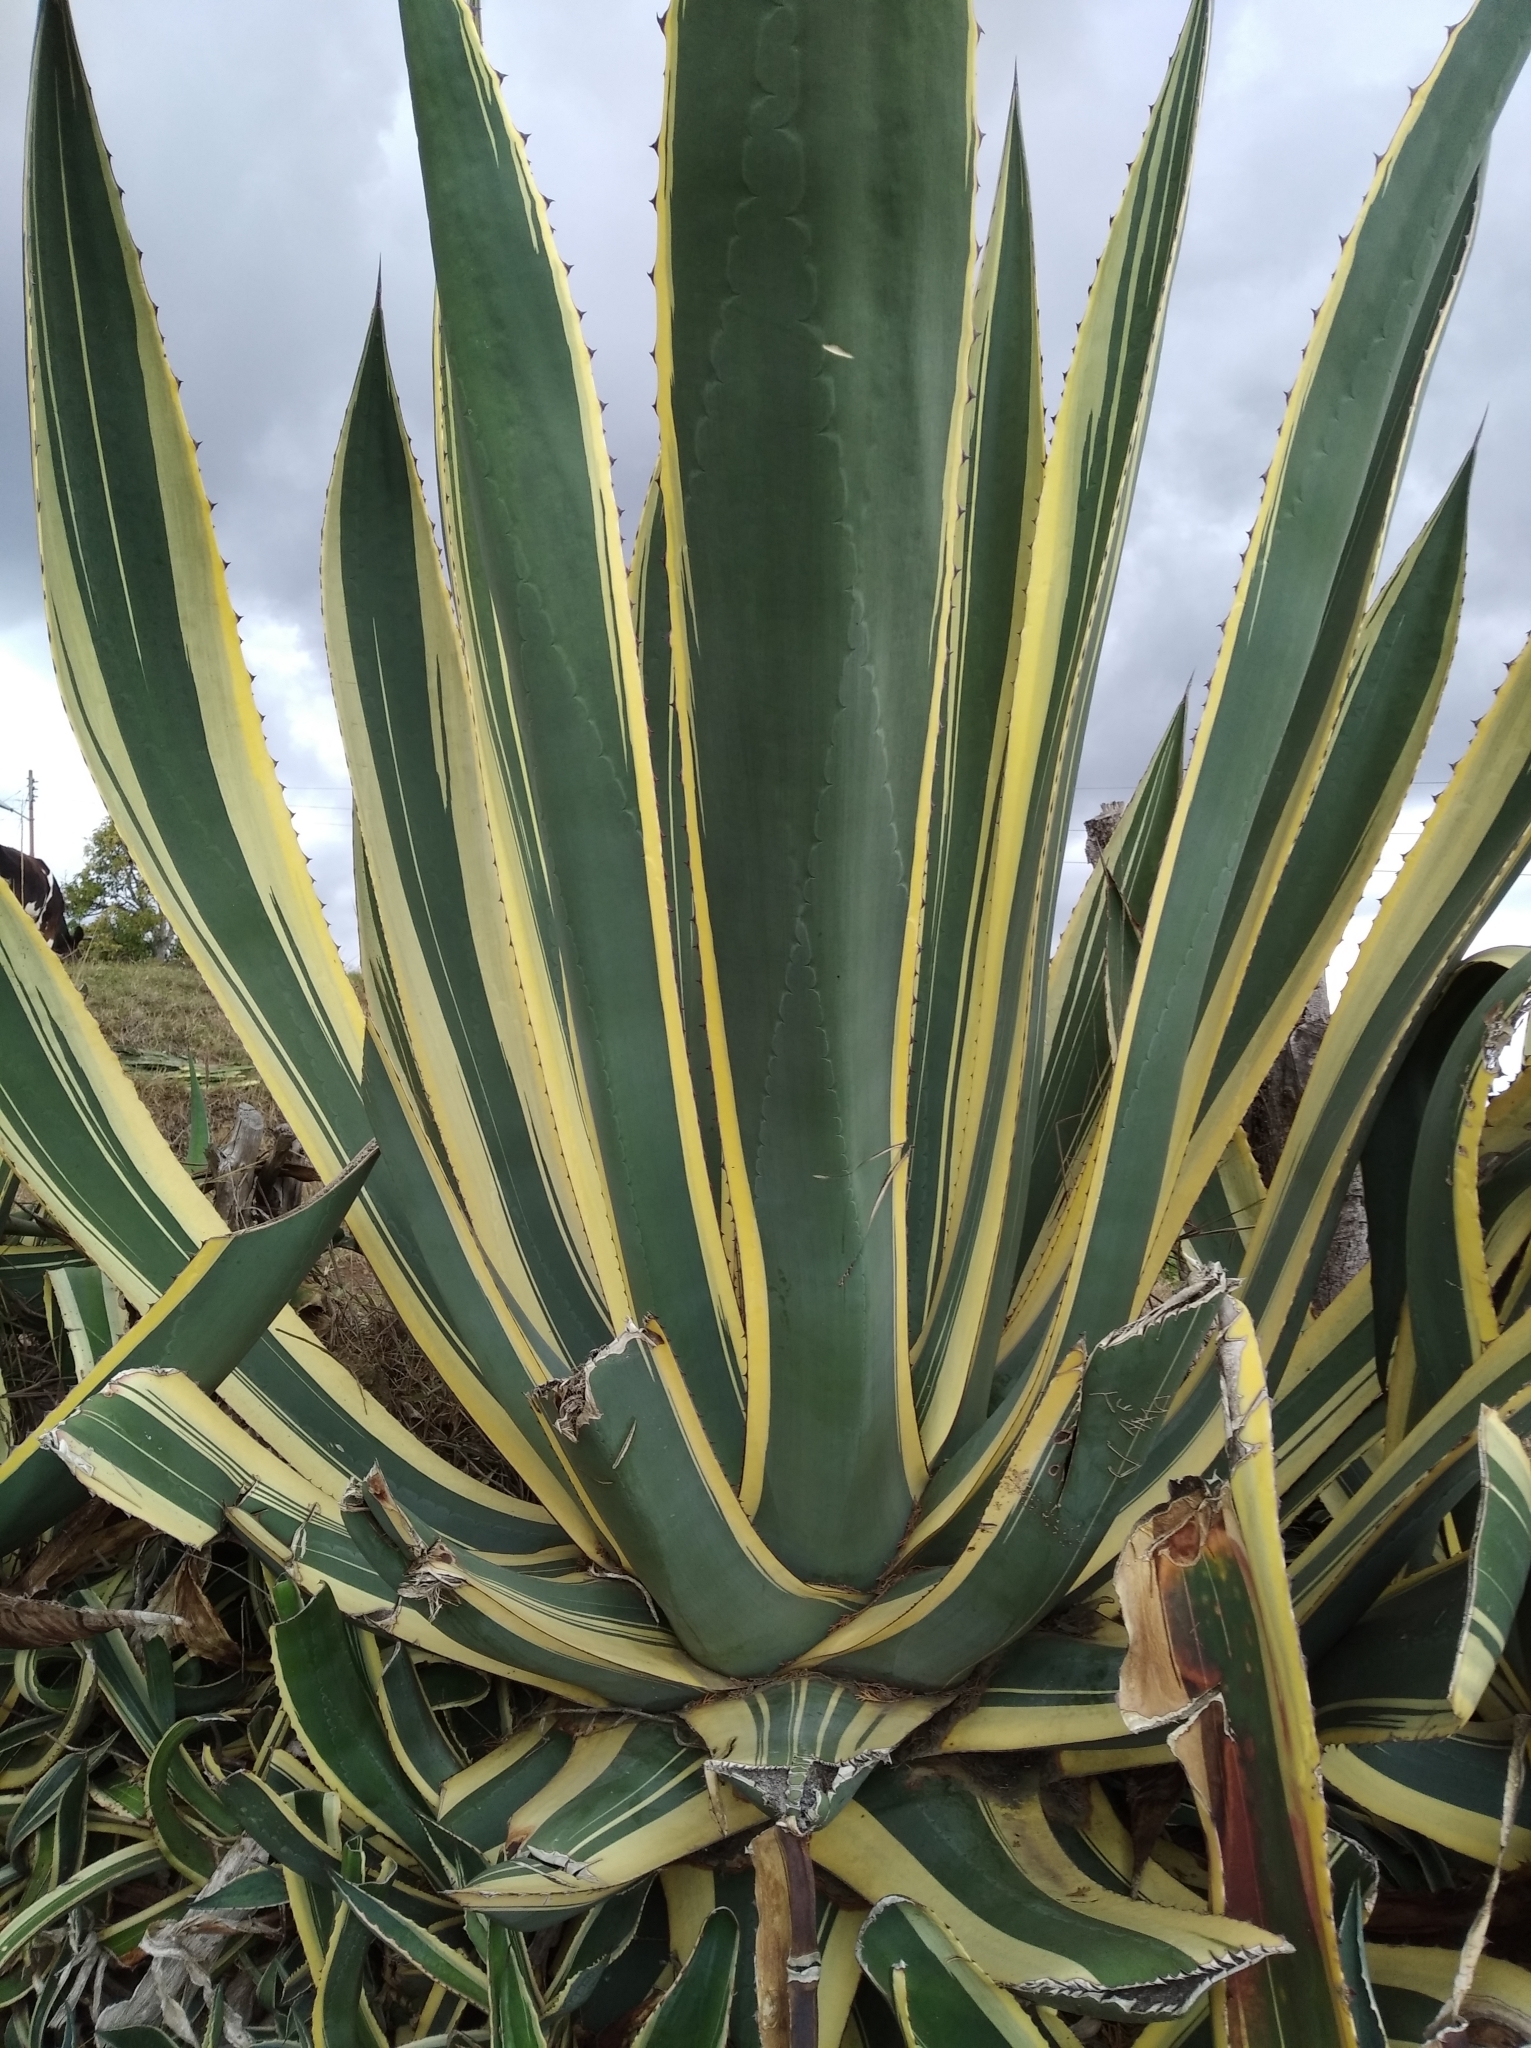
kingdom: Plantae
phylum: Tracheophyta
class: Liliopsida
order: Asparagales
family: Asparagaceae
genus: Agave
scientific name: Agave americana
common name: Centuryplant
